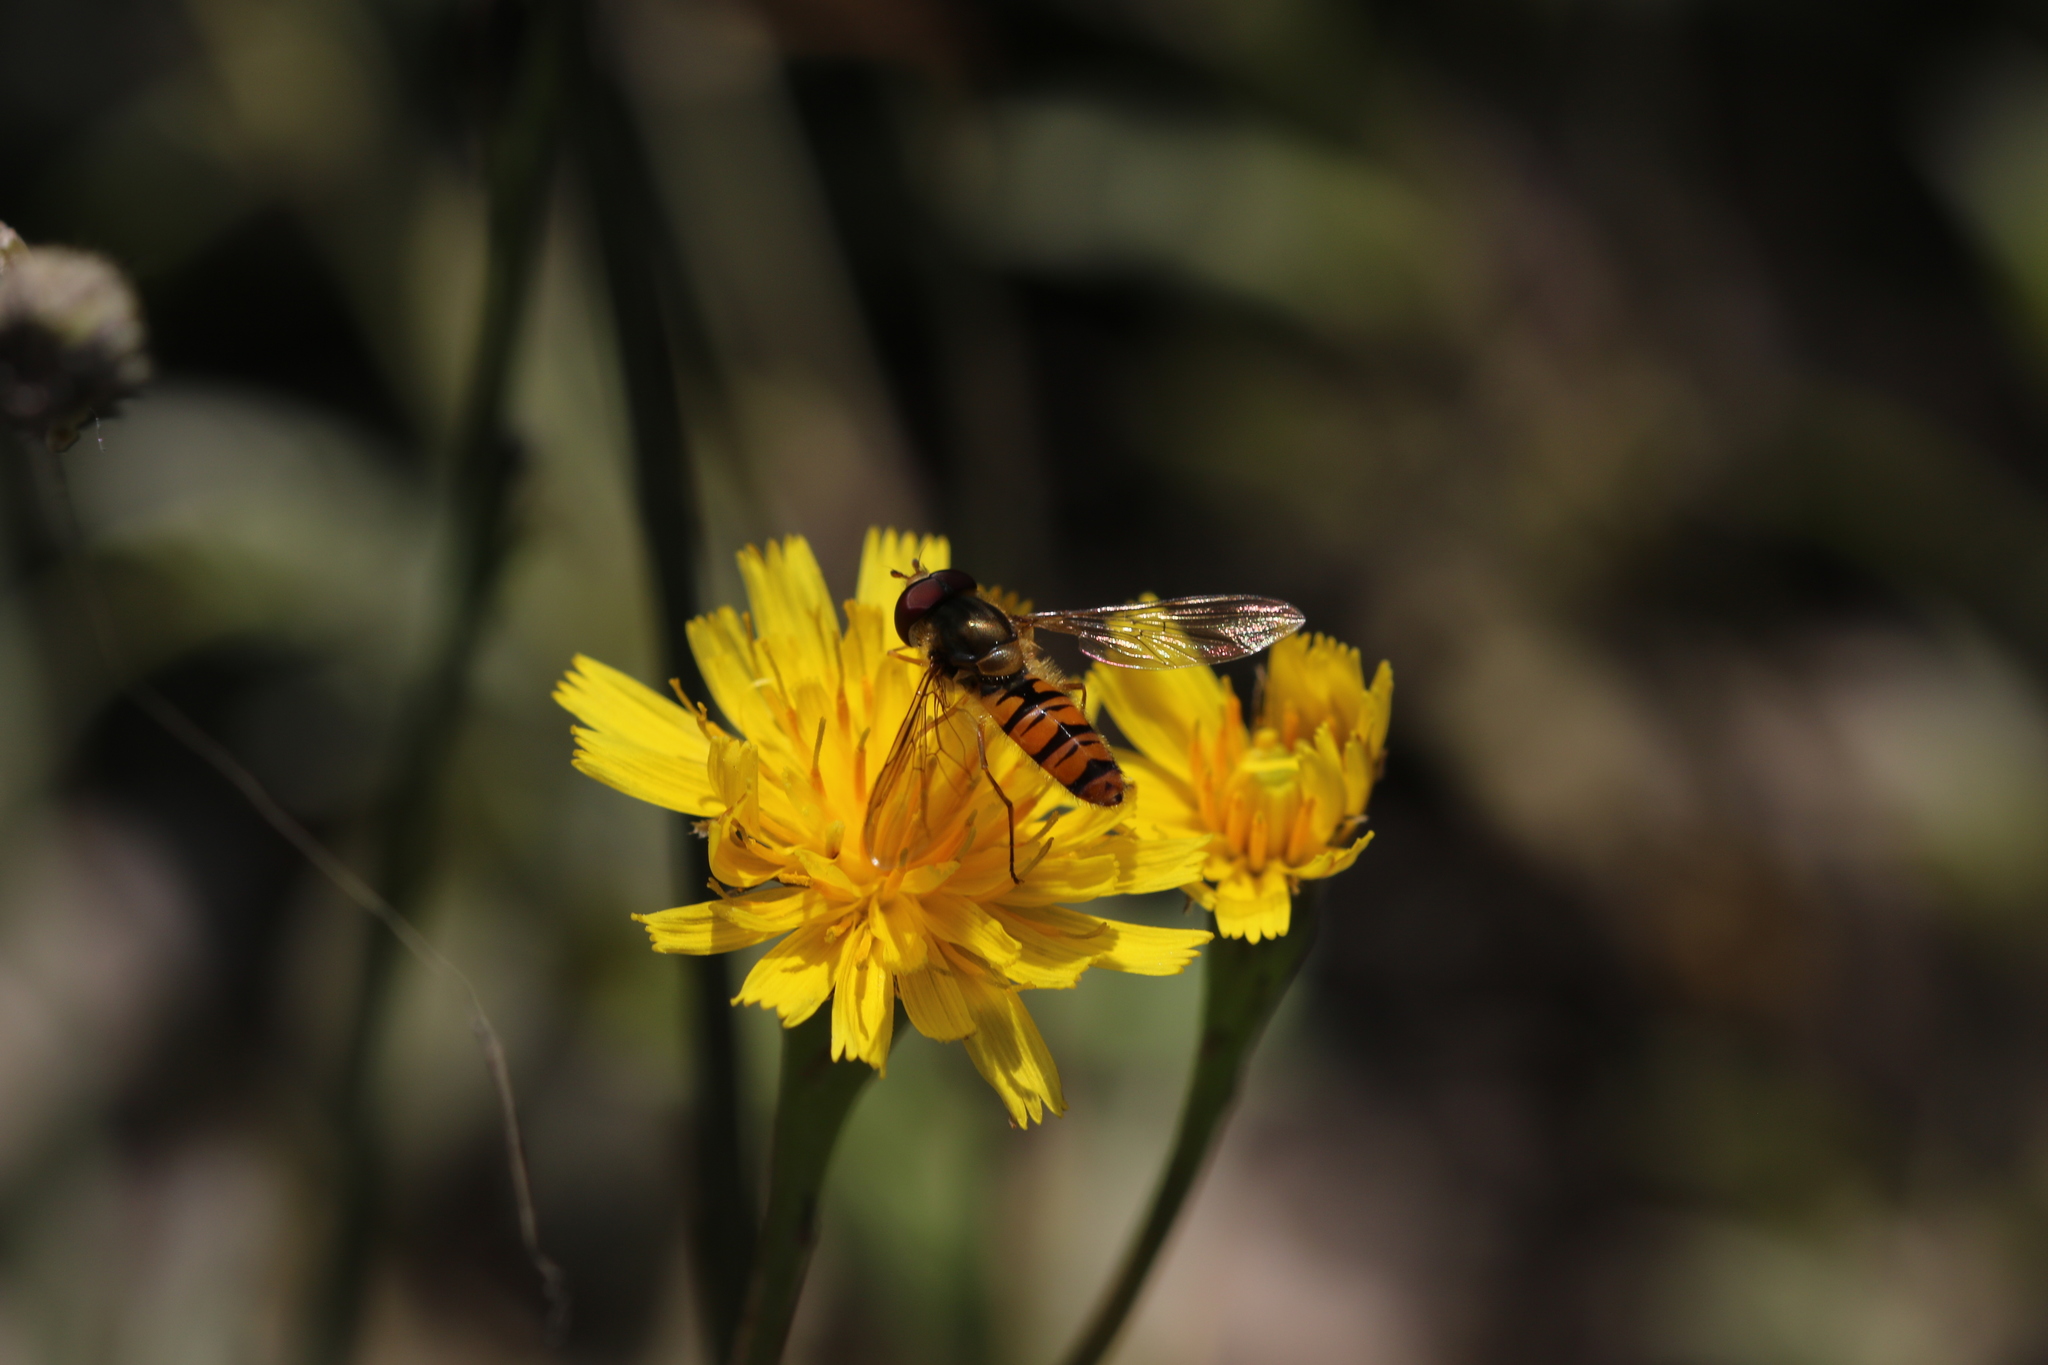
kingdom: Animalia
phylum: Arthropoda
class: Insecta
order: Diptera
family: Syrphidae
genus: Episyrphus
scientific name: Episyrphus balteatus
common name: Marmalade hoverfly
